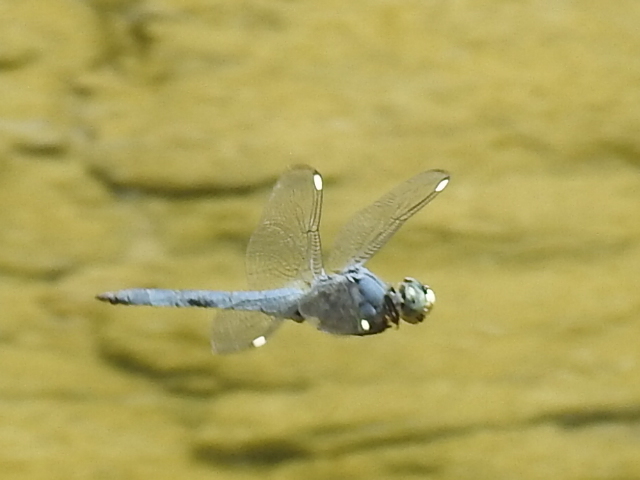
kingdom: Animalia
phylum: Arthropoda
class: Insecta
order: Odonata
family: Libellulidae
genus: Libellula
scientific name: Libellula comanche
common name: Comanche skimmer
